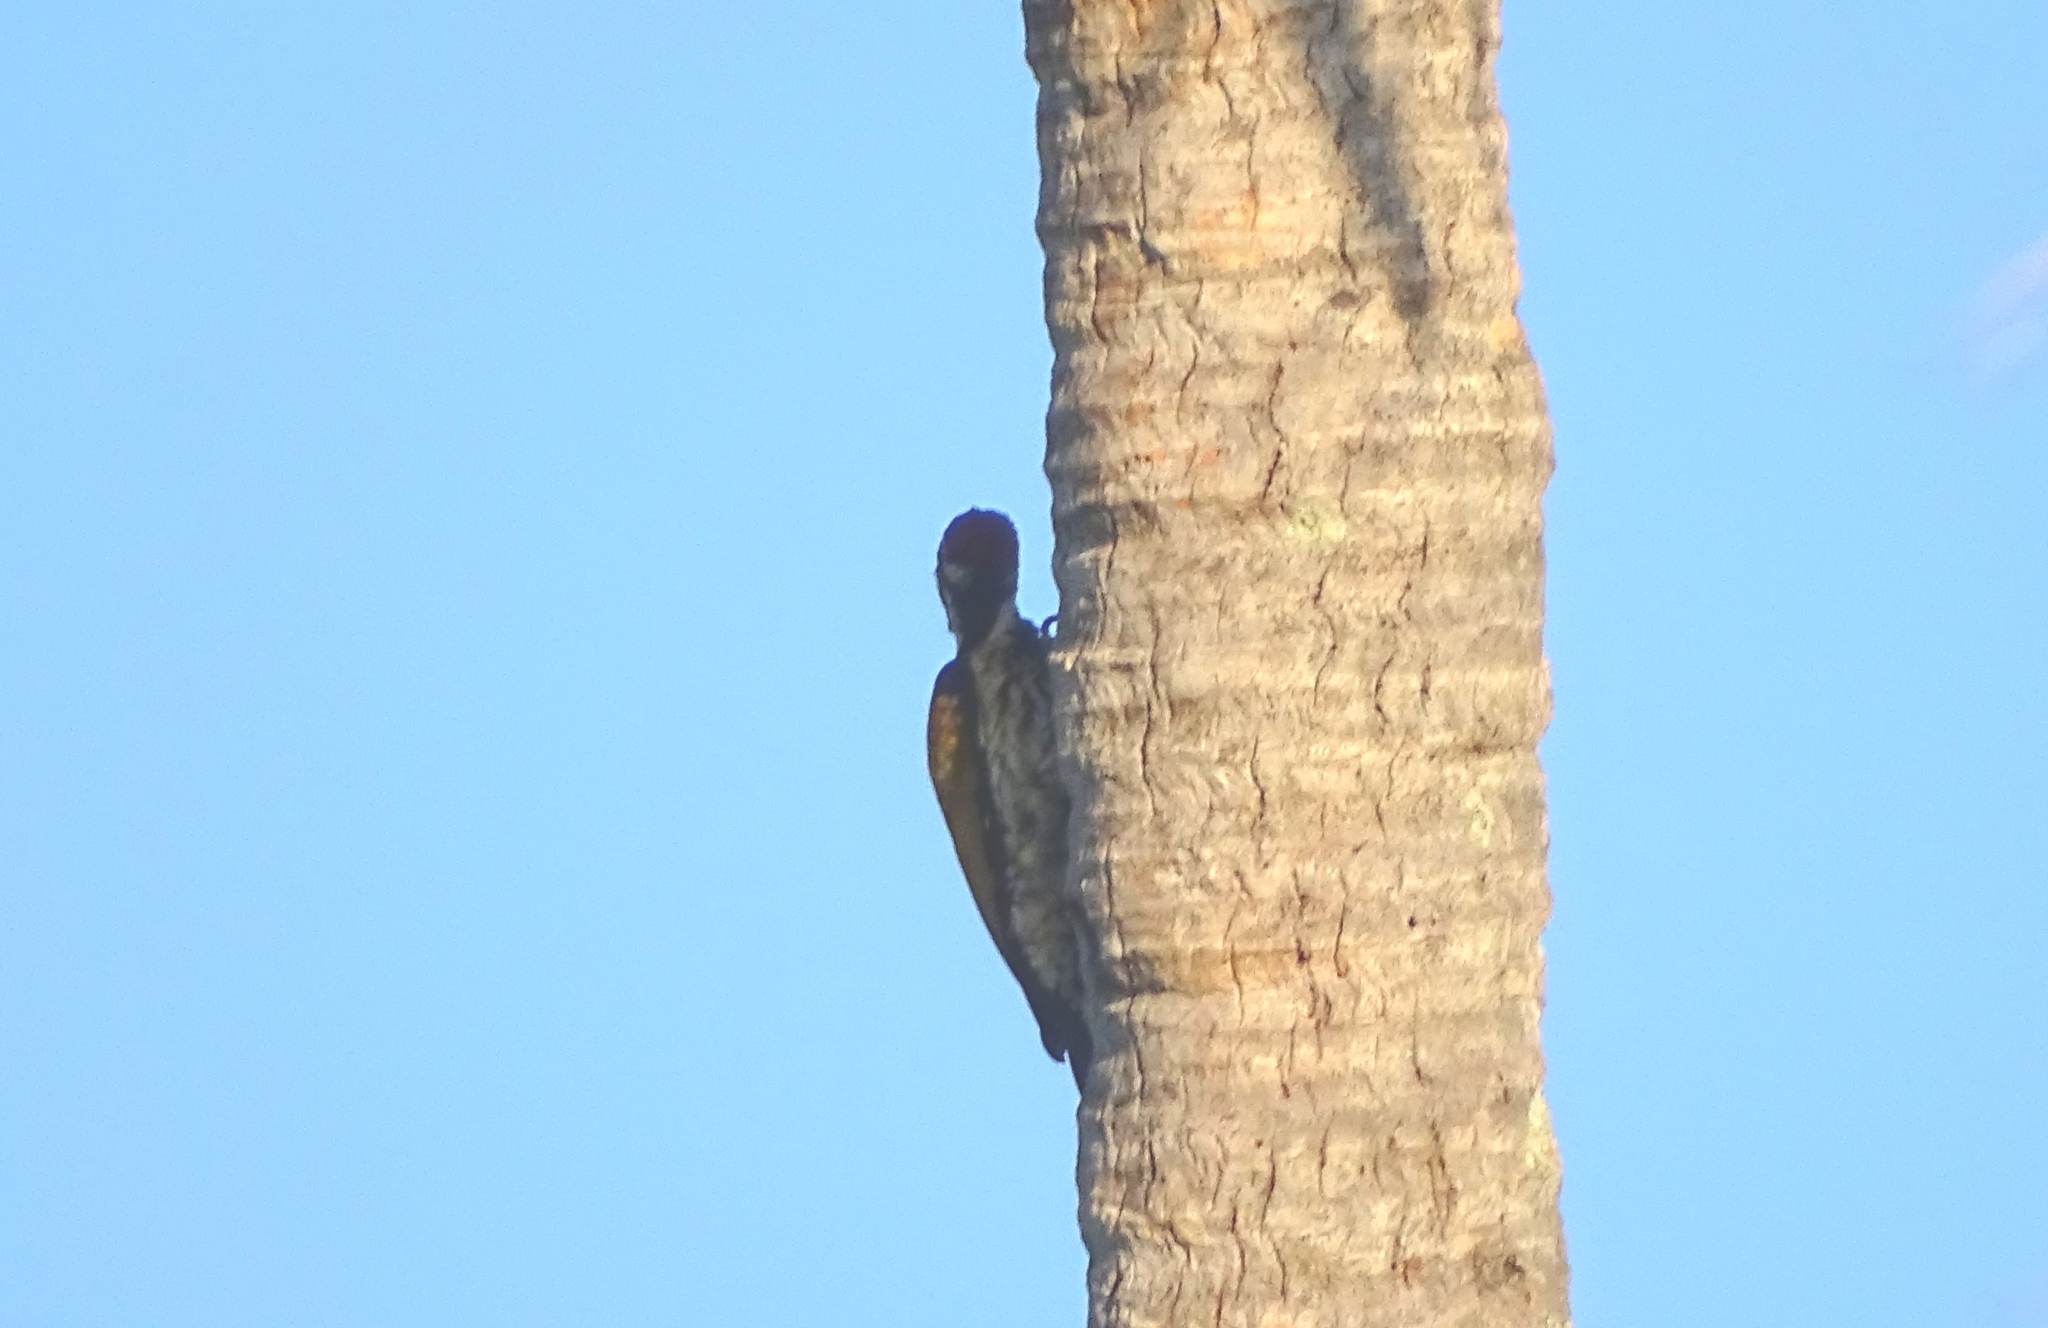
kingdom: Animalia
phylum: Chordata
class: Aves
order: Piciformes
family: Picidae
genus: Dinopium
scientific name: Dinopium benghalense
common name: Black-rumped flameback
